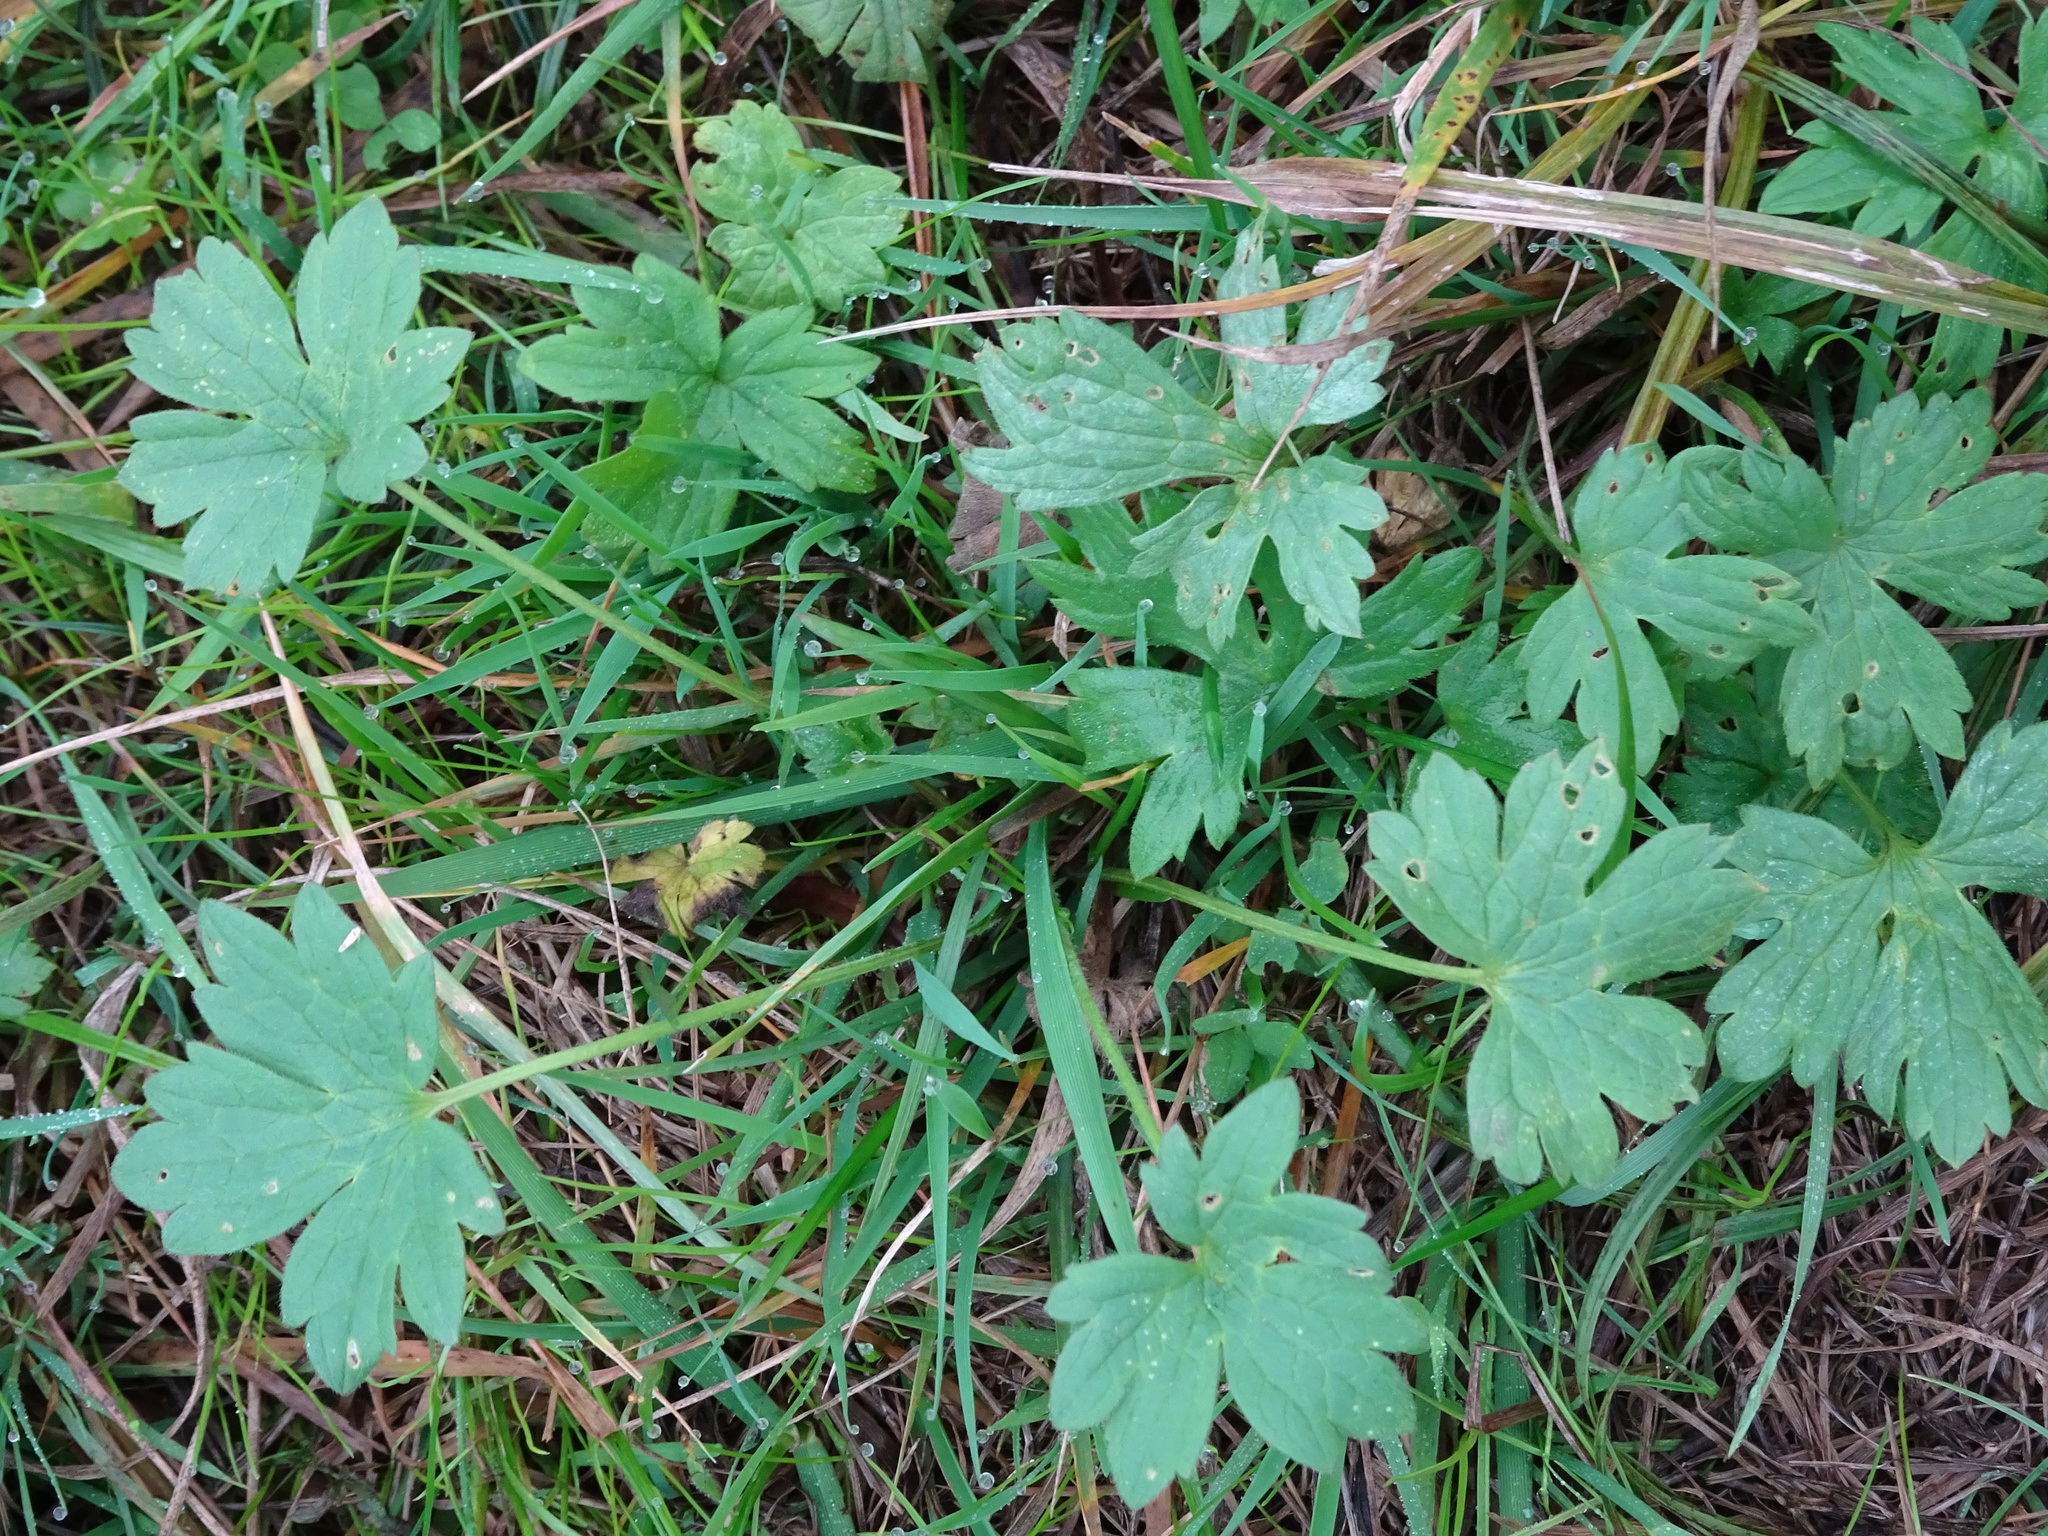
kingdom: Plantae
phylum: Tracheophyta
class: Magnoliopsida
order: Ranunculales
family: Ranunculaceae
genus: Ranunculus
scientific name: Ranunculus repens
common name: Creeping buttercup
